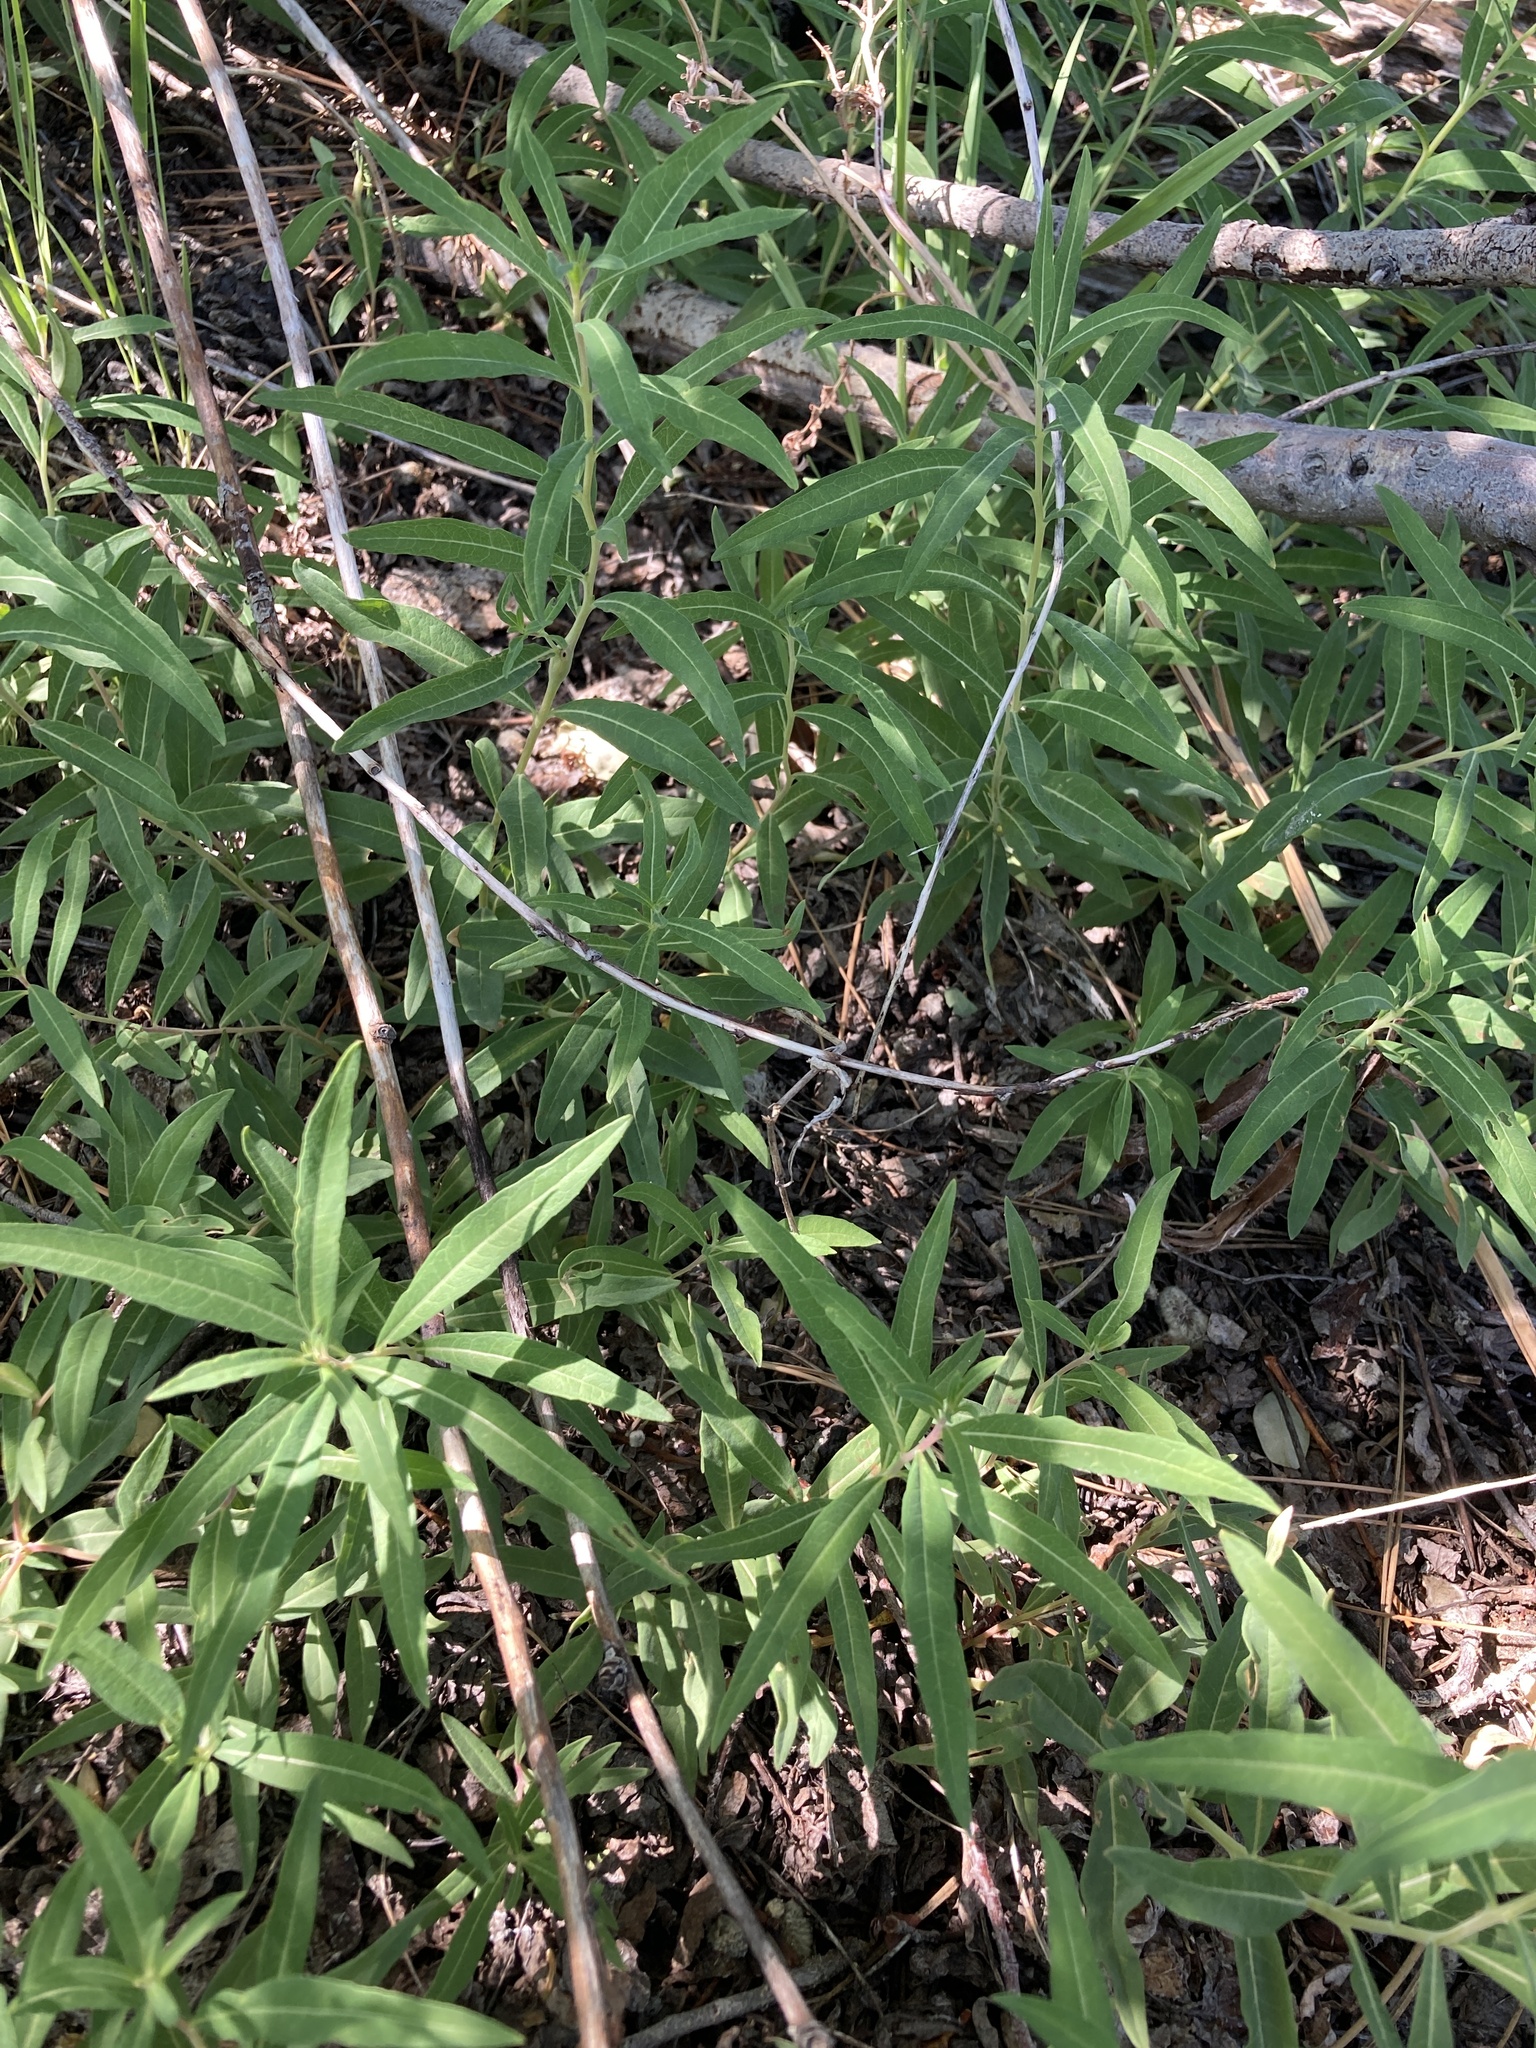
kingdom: Plantae
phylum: Tracheophyta
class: Magnoliopsida
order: Myrtales
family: Onagraceae
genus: Chamaenerion
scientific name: Chamaenerion angustifolium
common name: Fireweed
